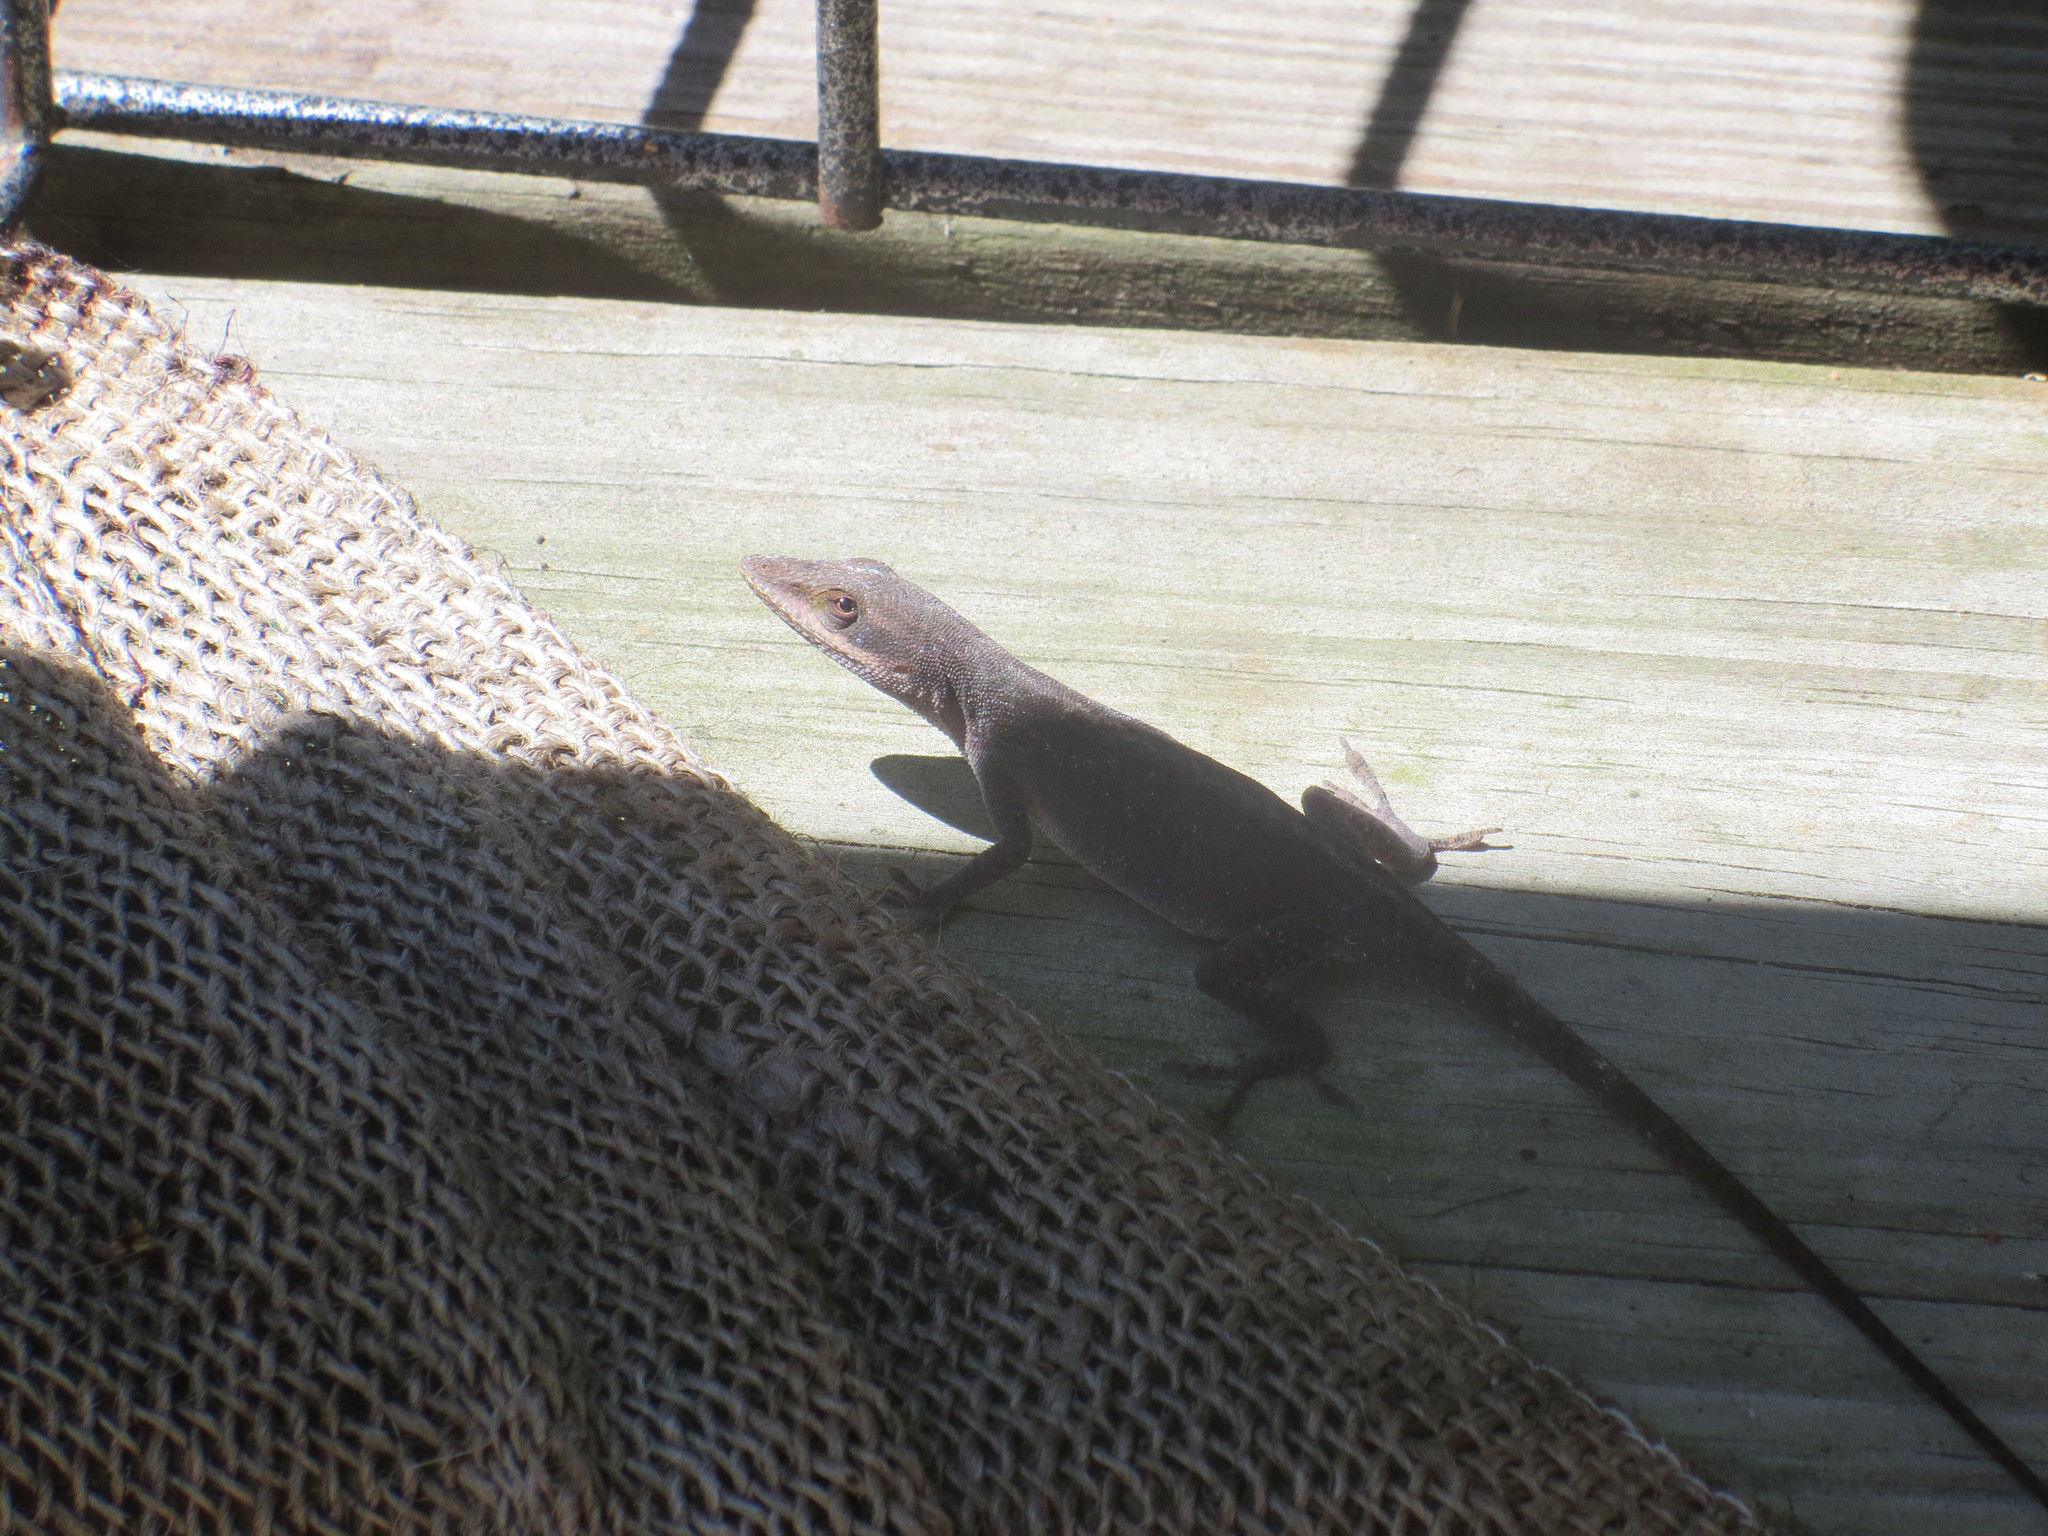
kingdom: Animalia
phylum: Chordata
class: Squamata
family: Dactyloidae
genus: Anolis
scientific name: Anolis carolinensis
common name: Green anole
